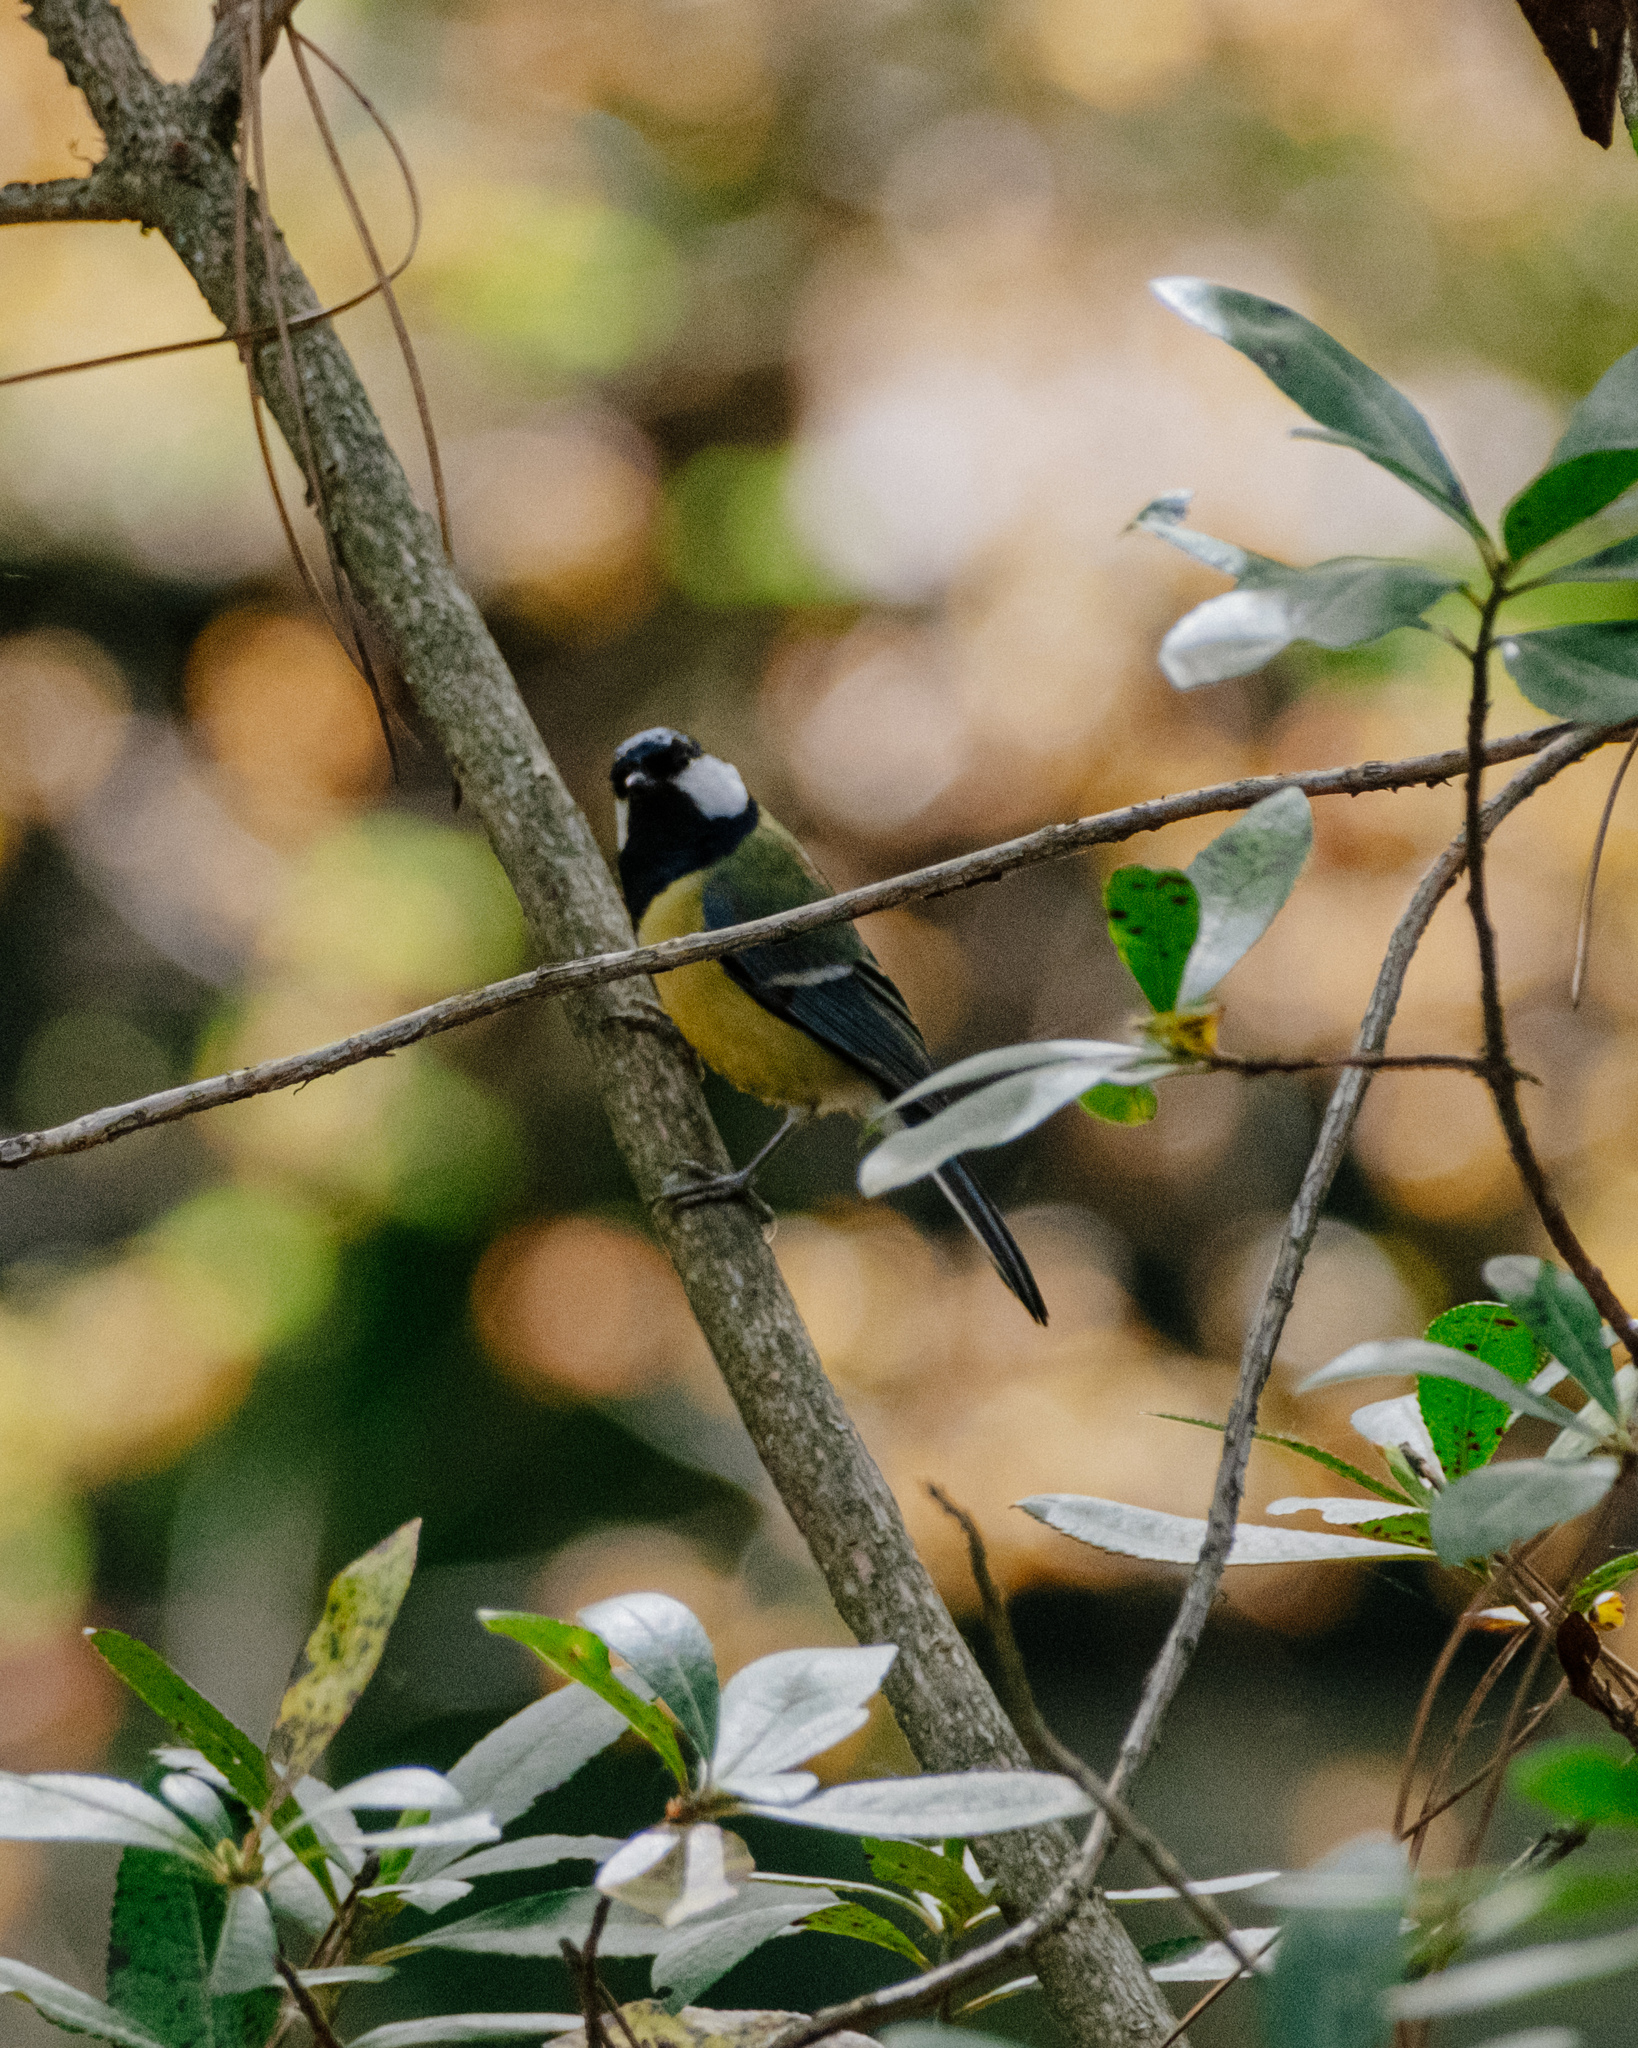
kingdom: Animalia
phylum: Chordata
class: Aves
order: Passeriformes
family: Paridae
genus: Parus
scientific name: Parus major
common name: Great tit
